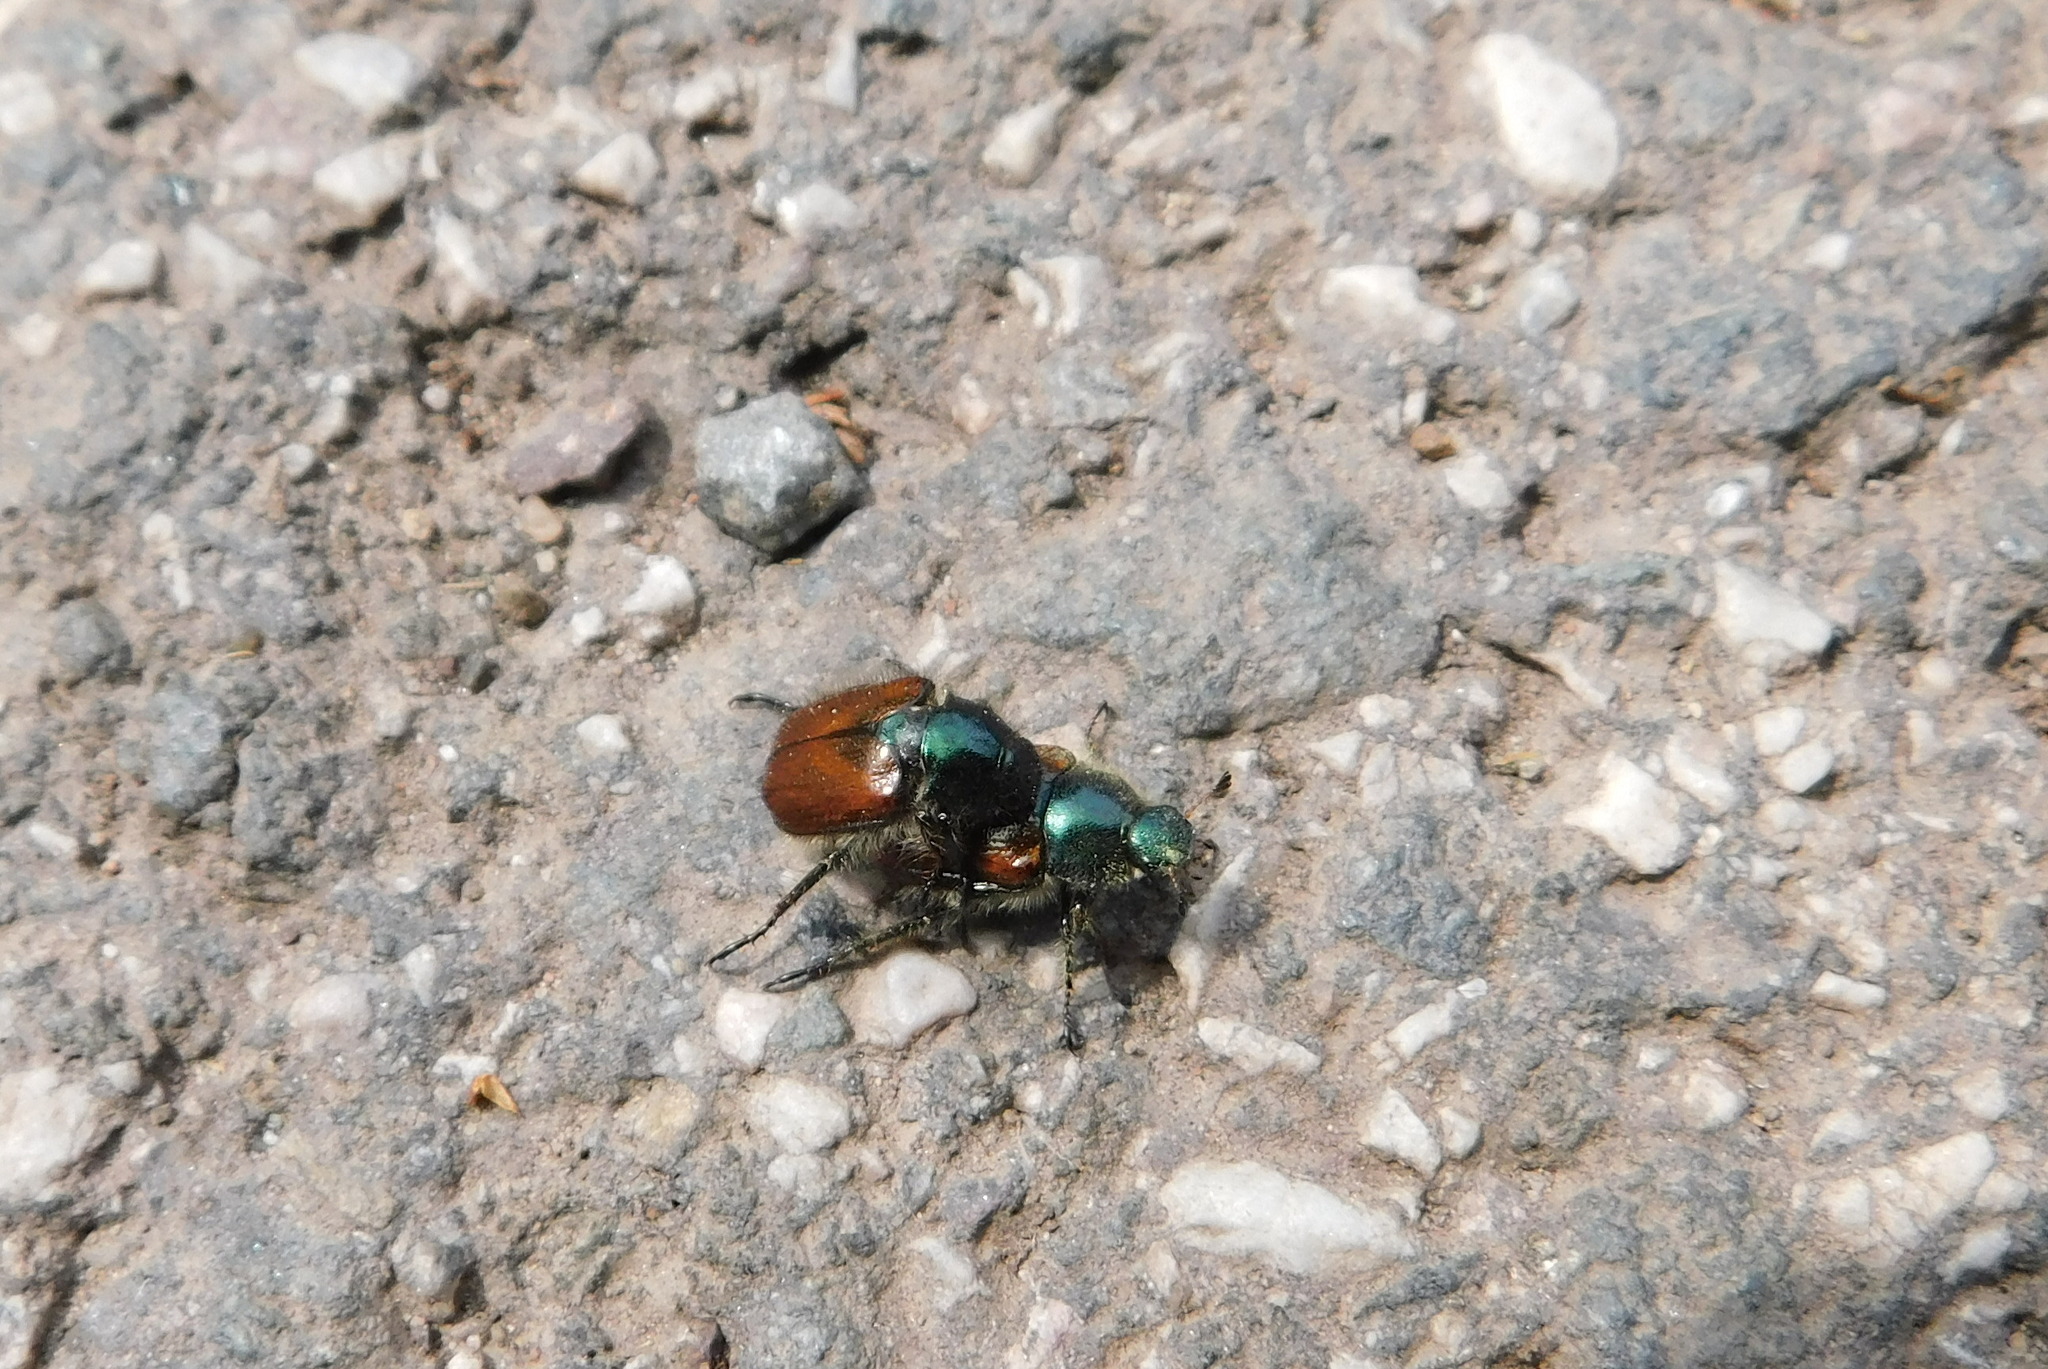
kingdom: Animalia
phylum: Arthropoda
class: Insecta
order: Coleoptera
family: Scarabaeidae
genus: Phyllopertha
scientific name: Phyllopertha horticola
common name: Garden chafer
